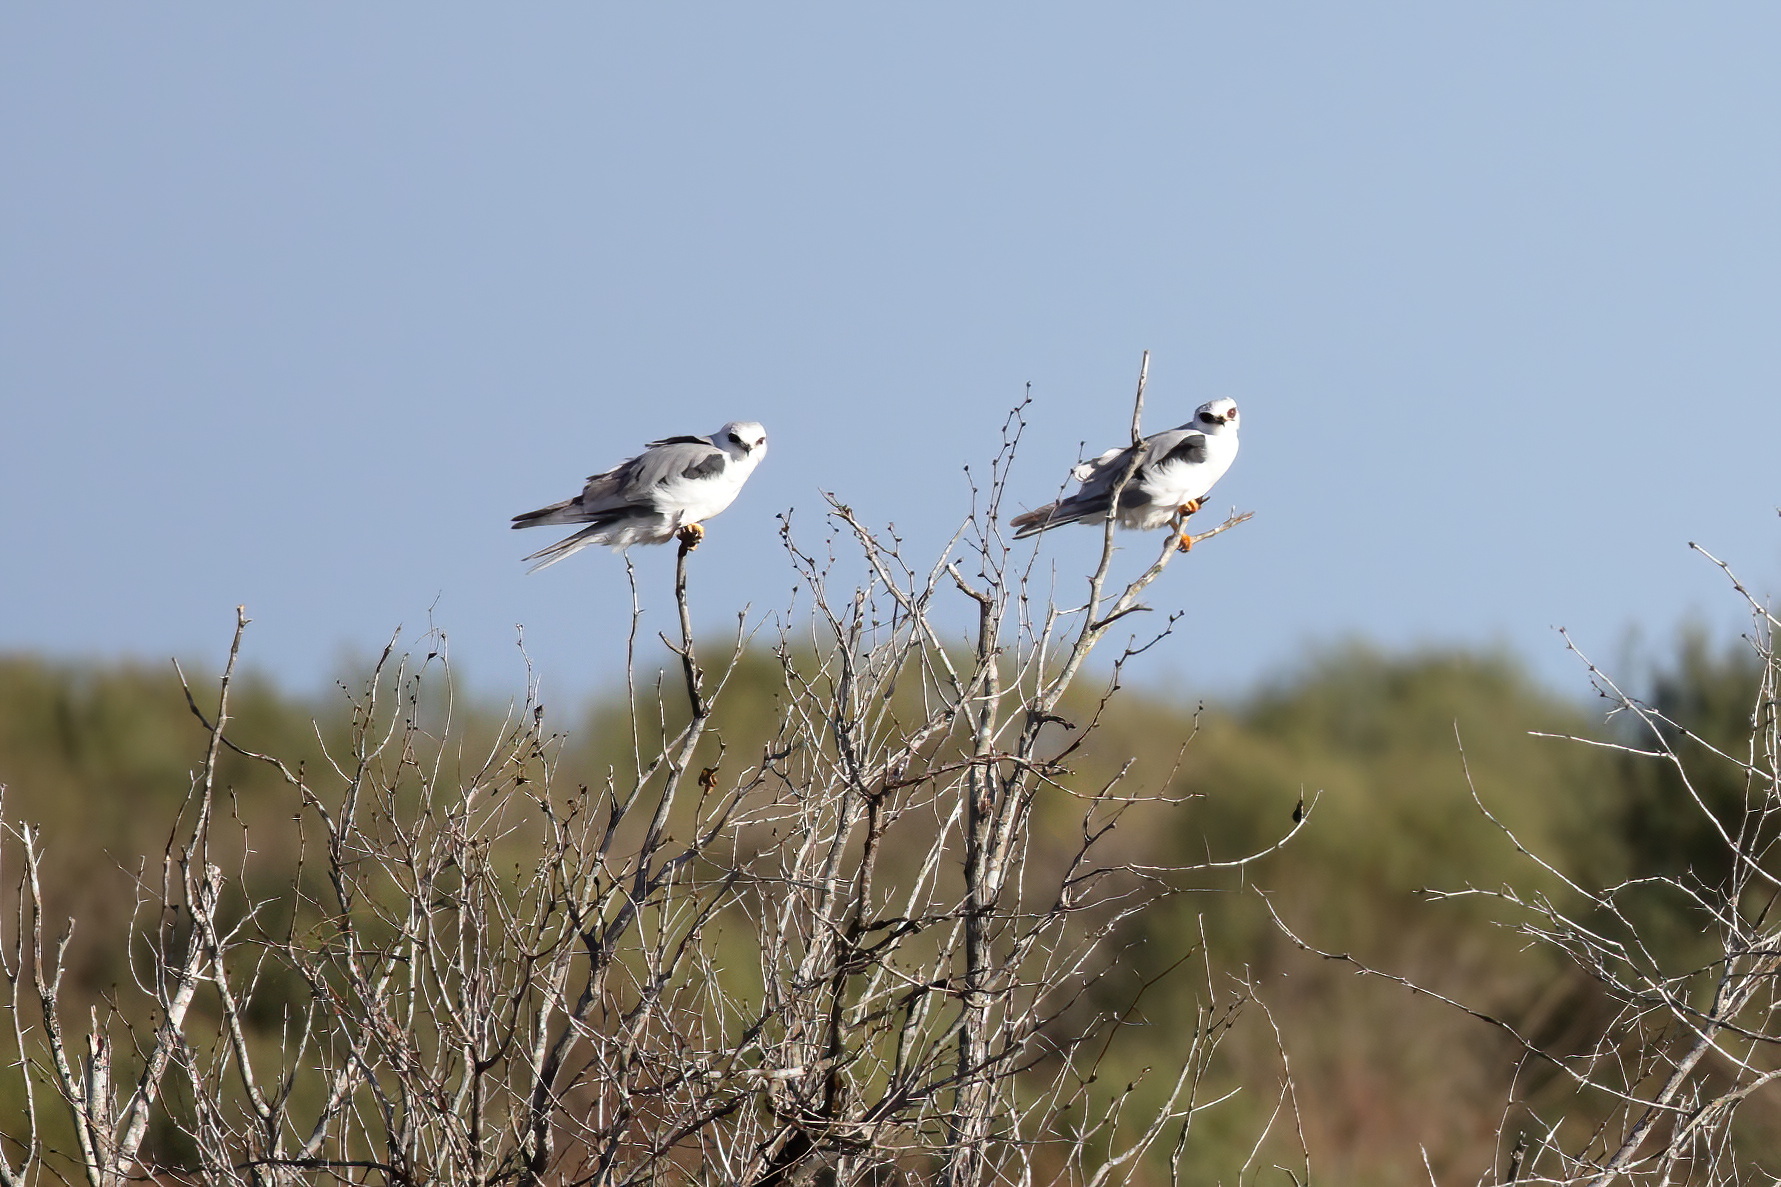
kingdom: Animalia
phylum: Chordata
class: Aves
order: Accipitriformes
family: Accipitridae
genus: Elanus
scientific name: Elanus leucurus
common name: White-tailed kite
